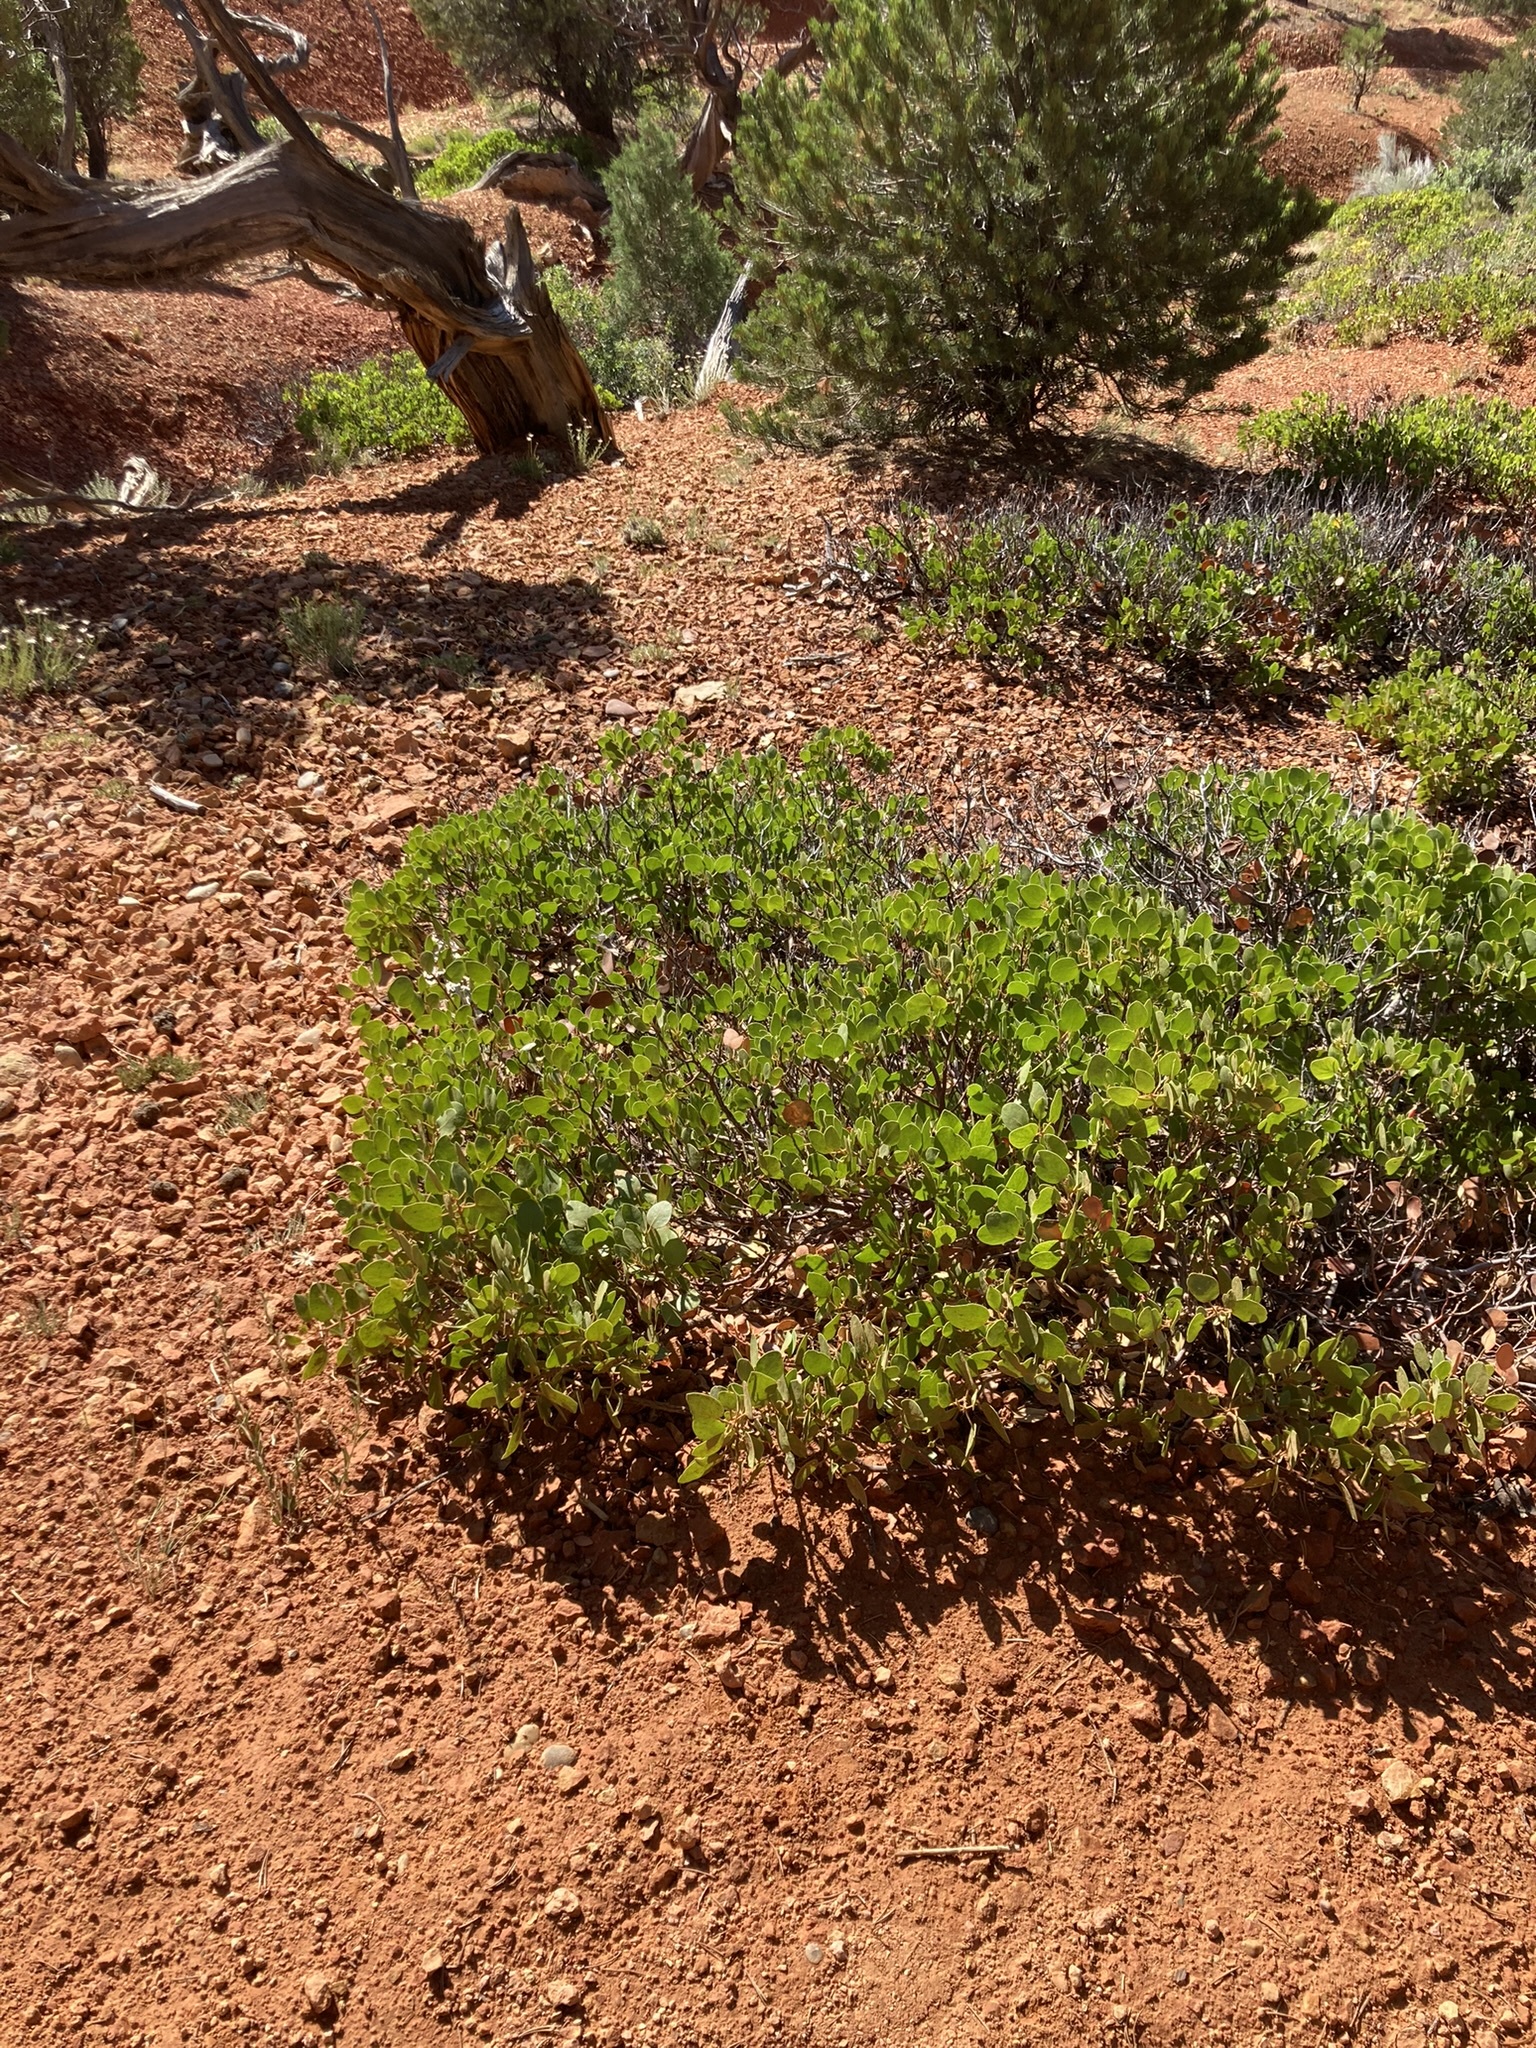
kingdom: Plantae
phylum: Tracheophyta
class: Magnoliopsida
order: Ericales
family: Ericaceae
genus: Arctostaphylos
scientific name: Arctostaphylos patula
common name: Green-leaf manzanita
